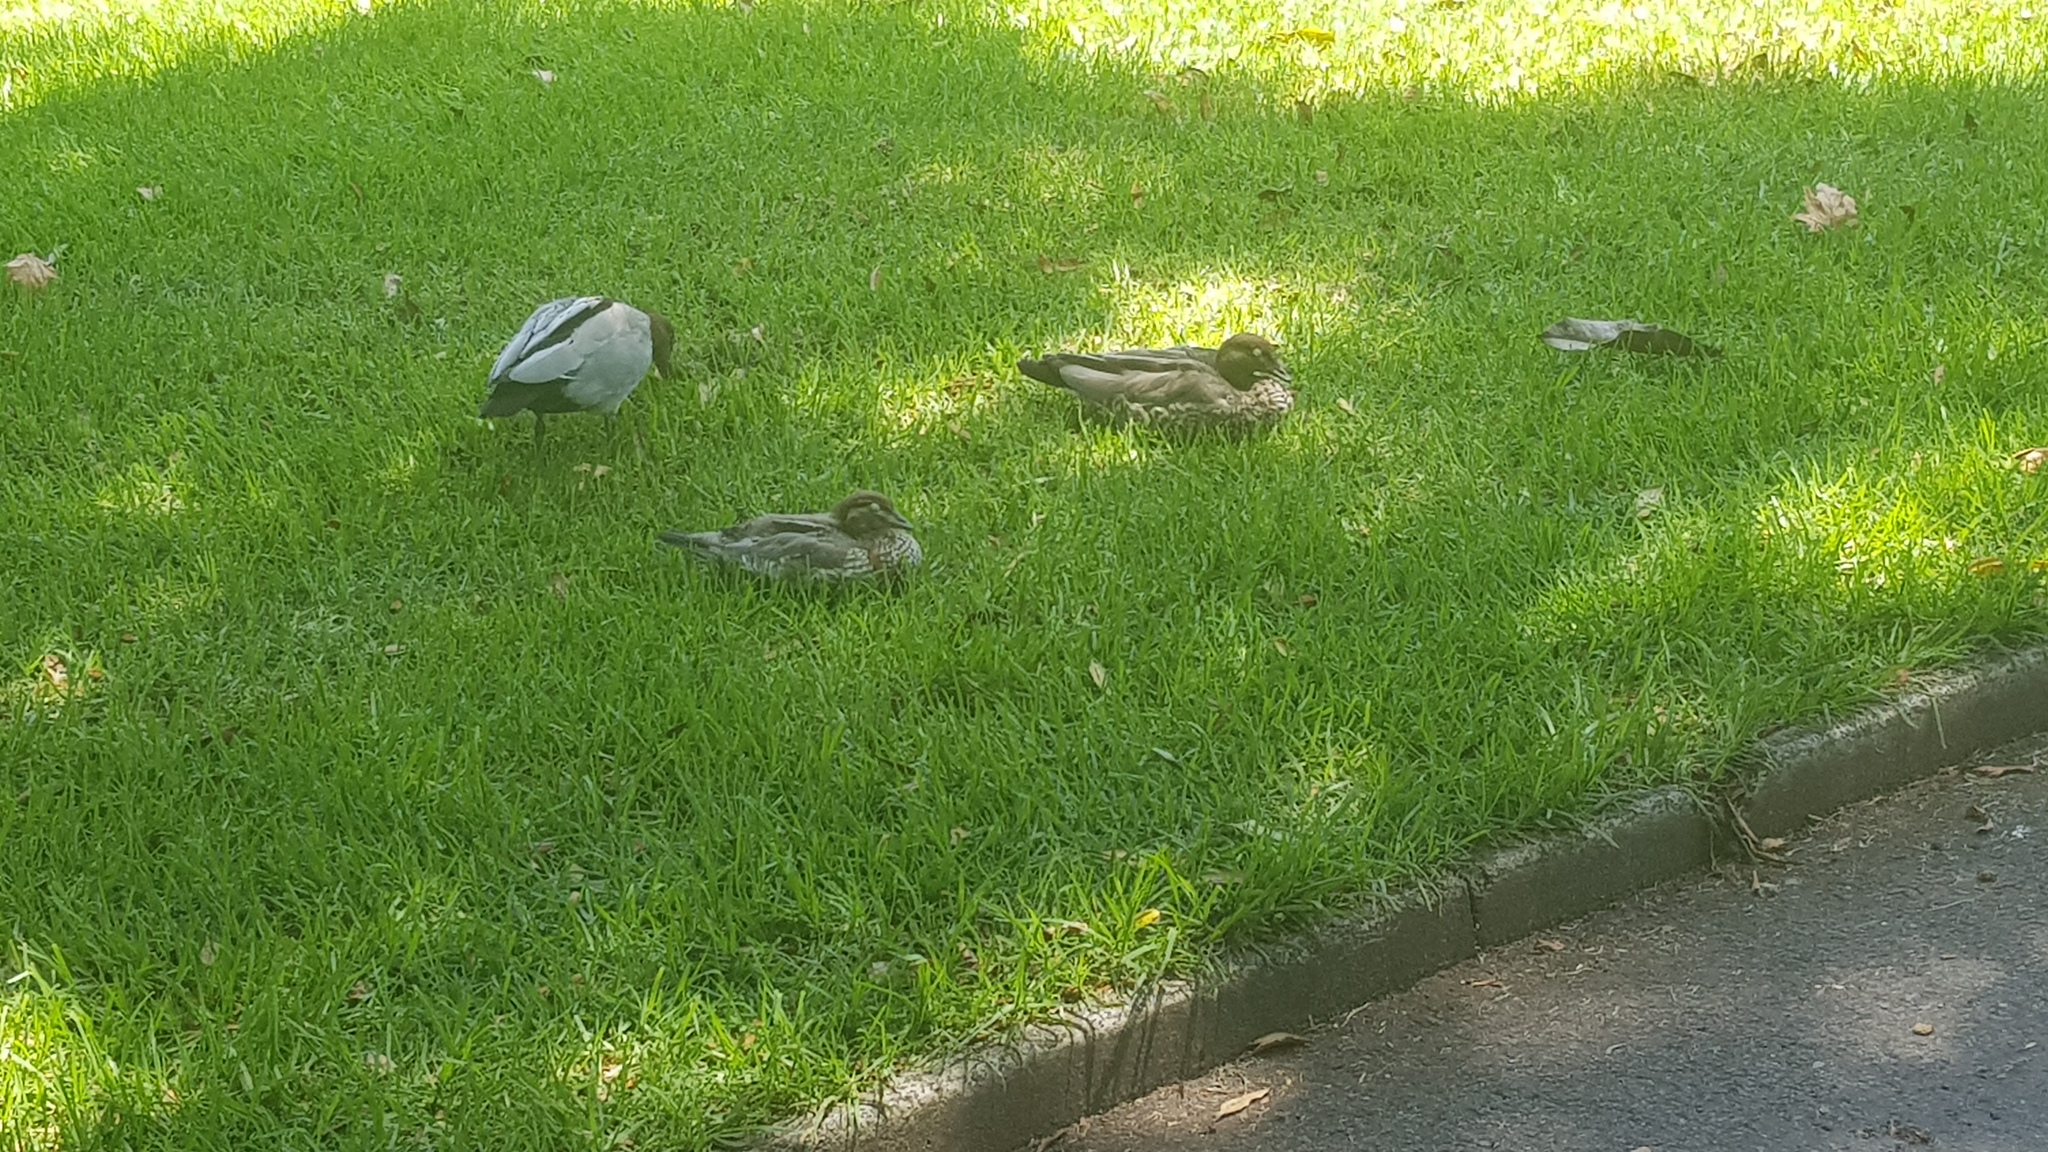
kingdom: Animalia
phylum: Chordata
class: Aves
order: Anseriformes
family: Anatidae
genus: Chenonetta
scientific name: Chenonetta jubata
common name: Maned duck
